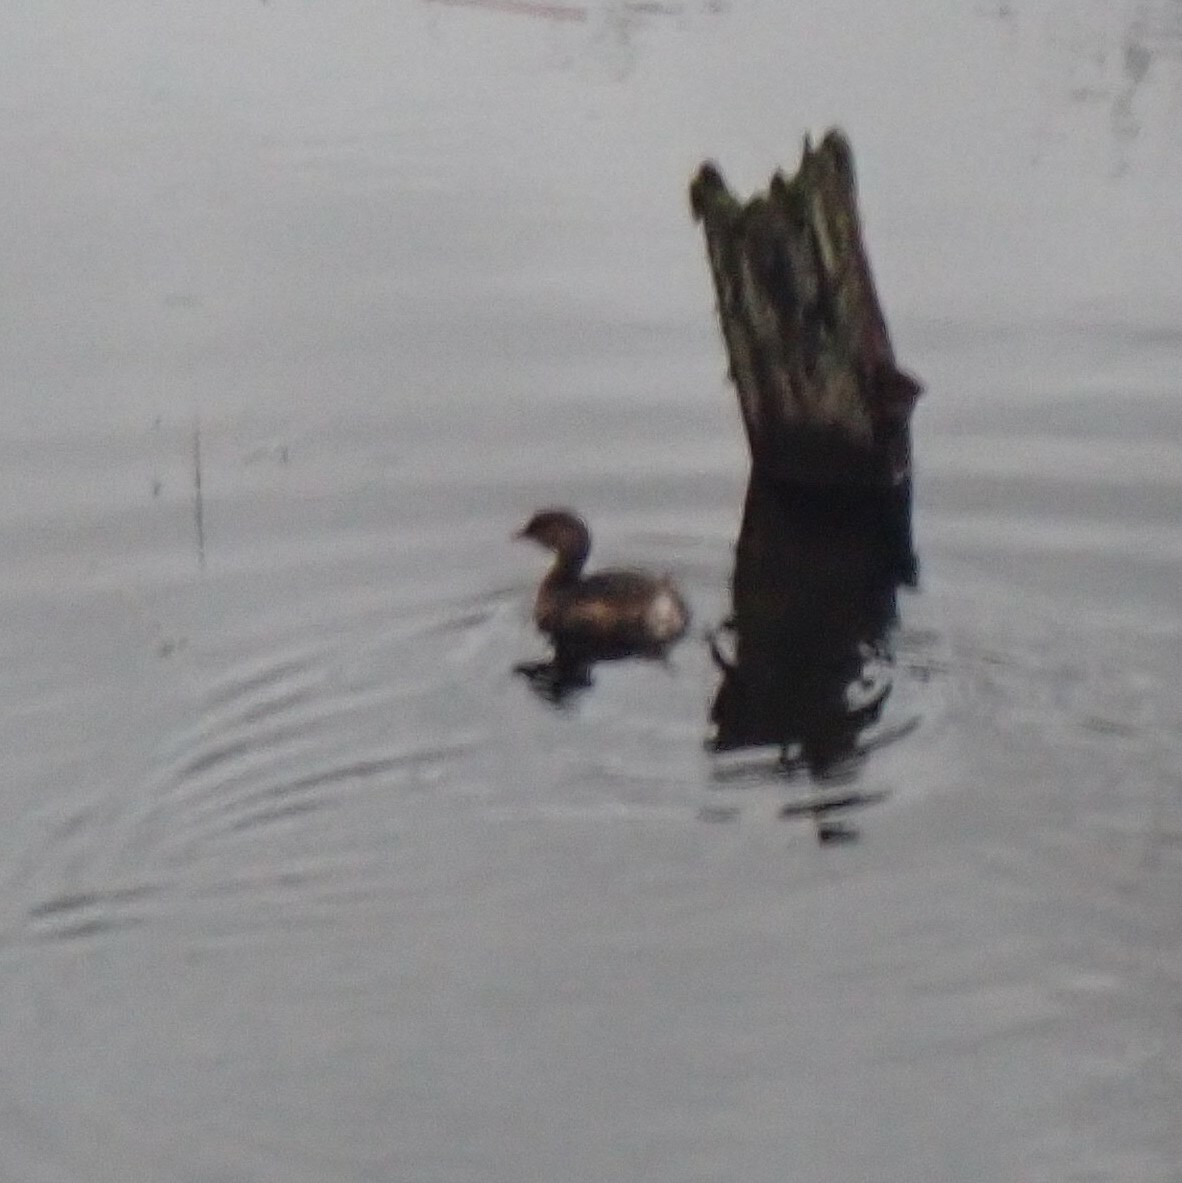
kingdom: Animalia
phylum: Chordata
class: Aves
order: Podicipediformes
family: Podicipedidae
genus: Podilymbus
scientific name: Podilymbus podiceps
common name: Pied-billed grebe
